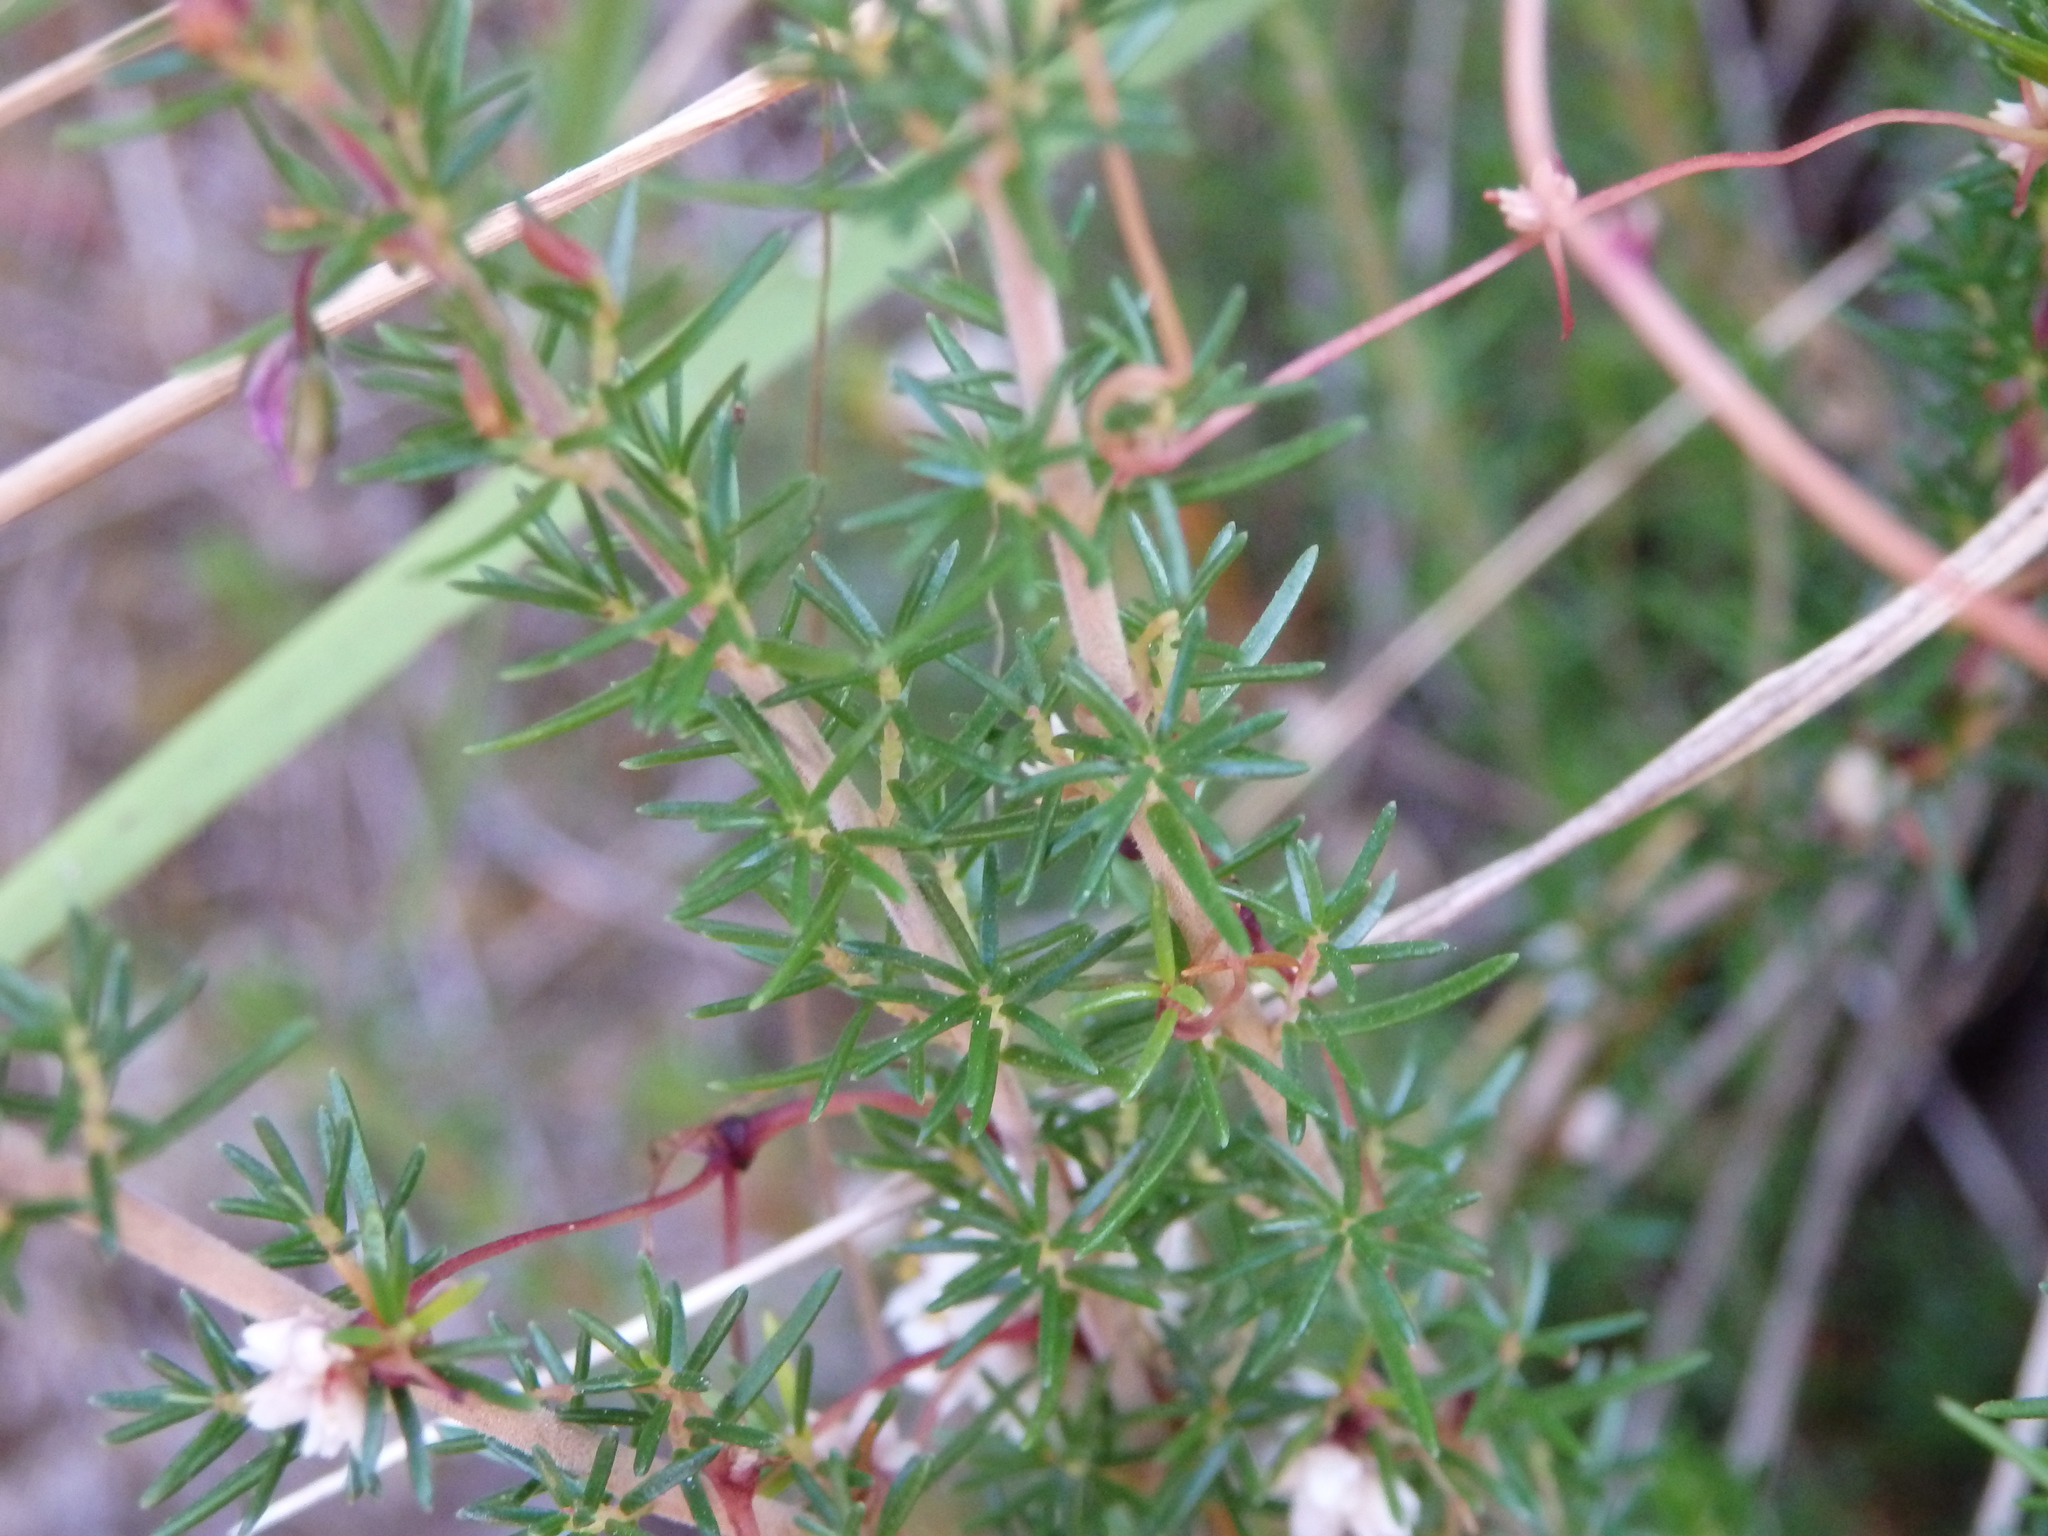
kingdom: Plantae
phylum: Tracheophyta
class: Magnoliopsida
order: Ericales
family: Ericaceae
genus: Erica
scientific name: Erica cinerea
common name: Bell heather
